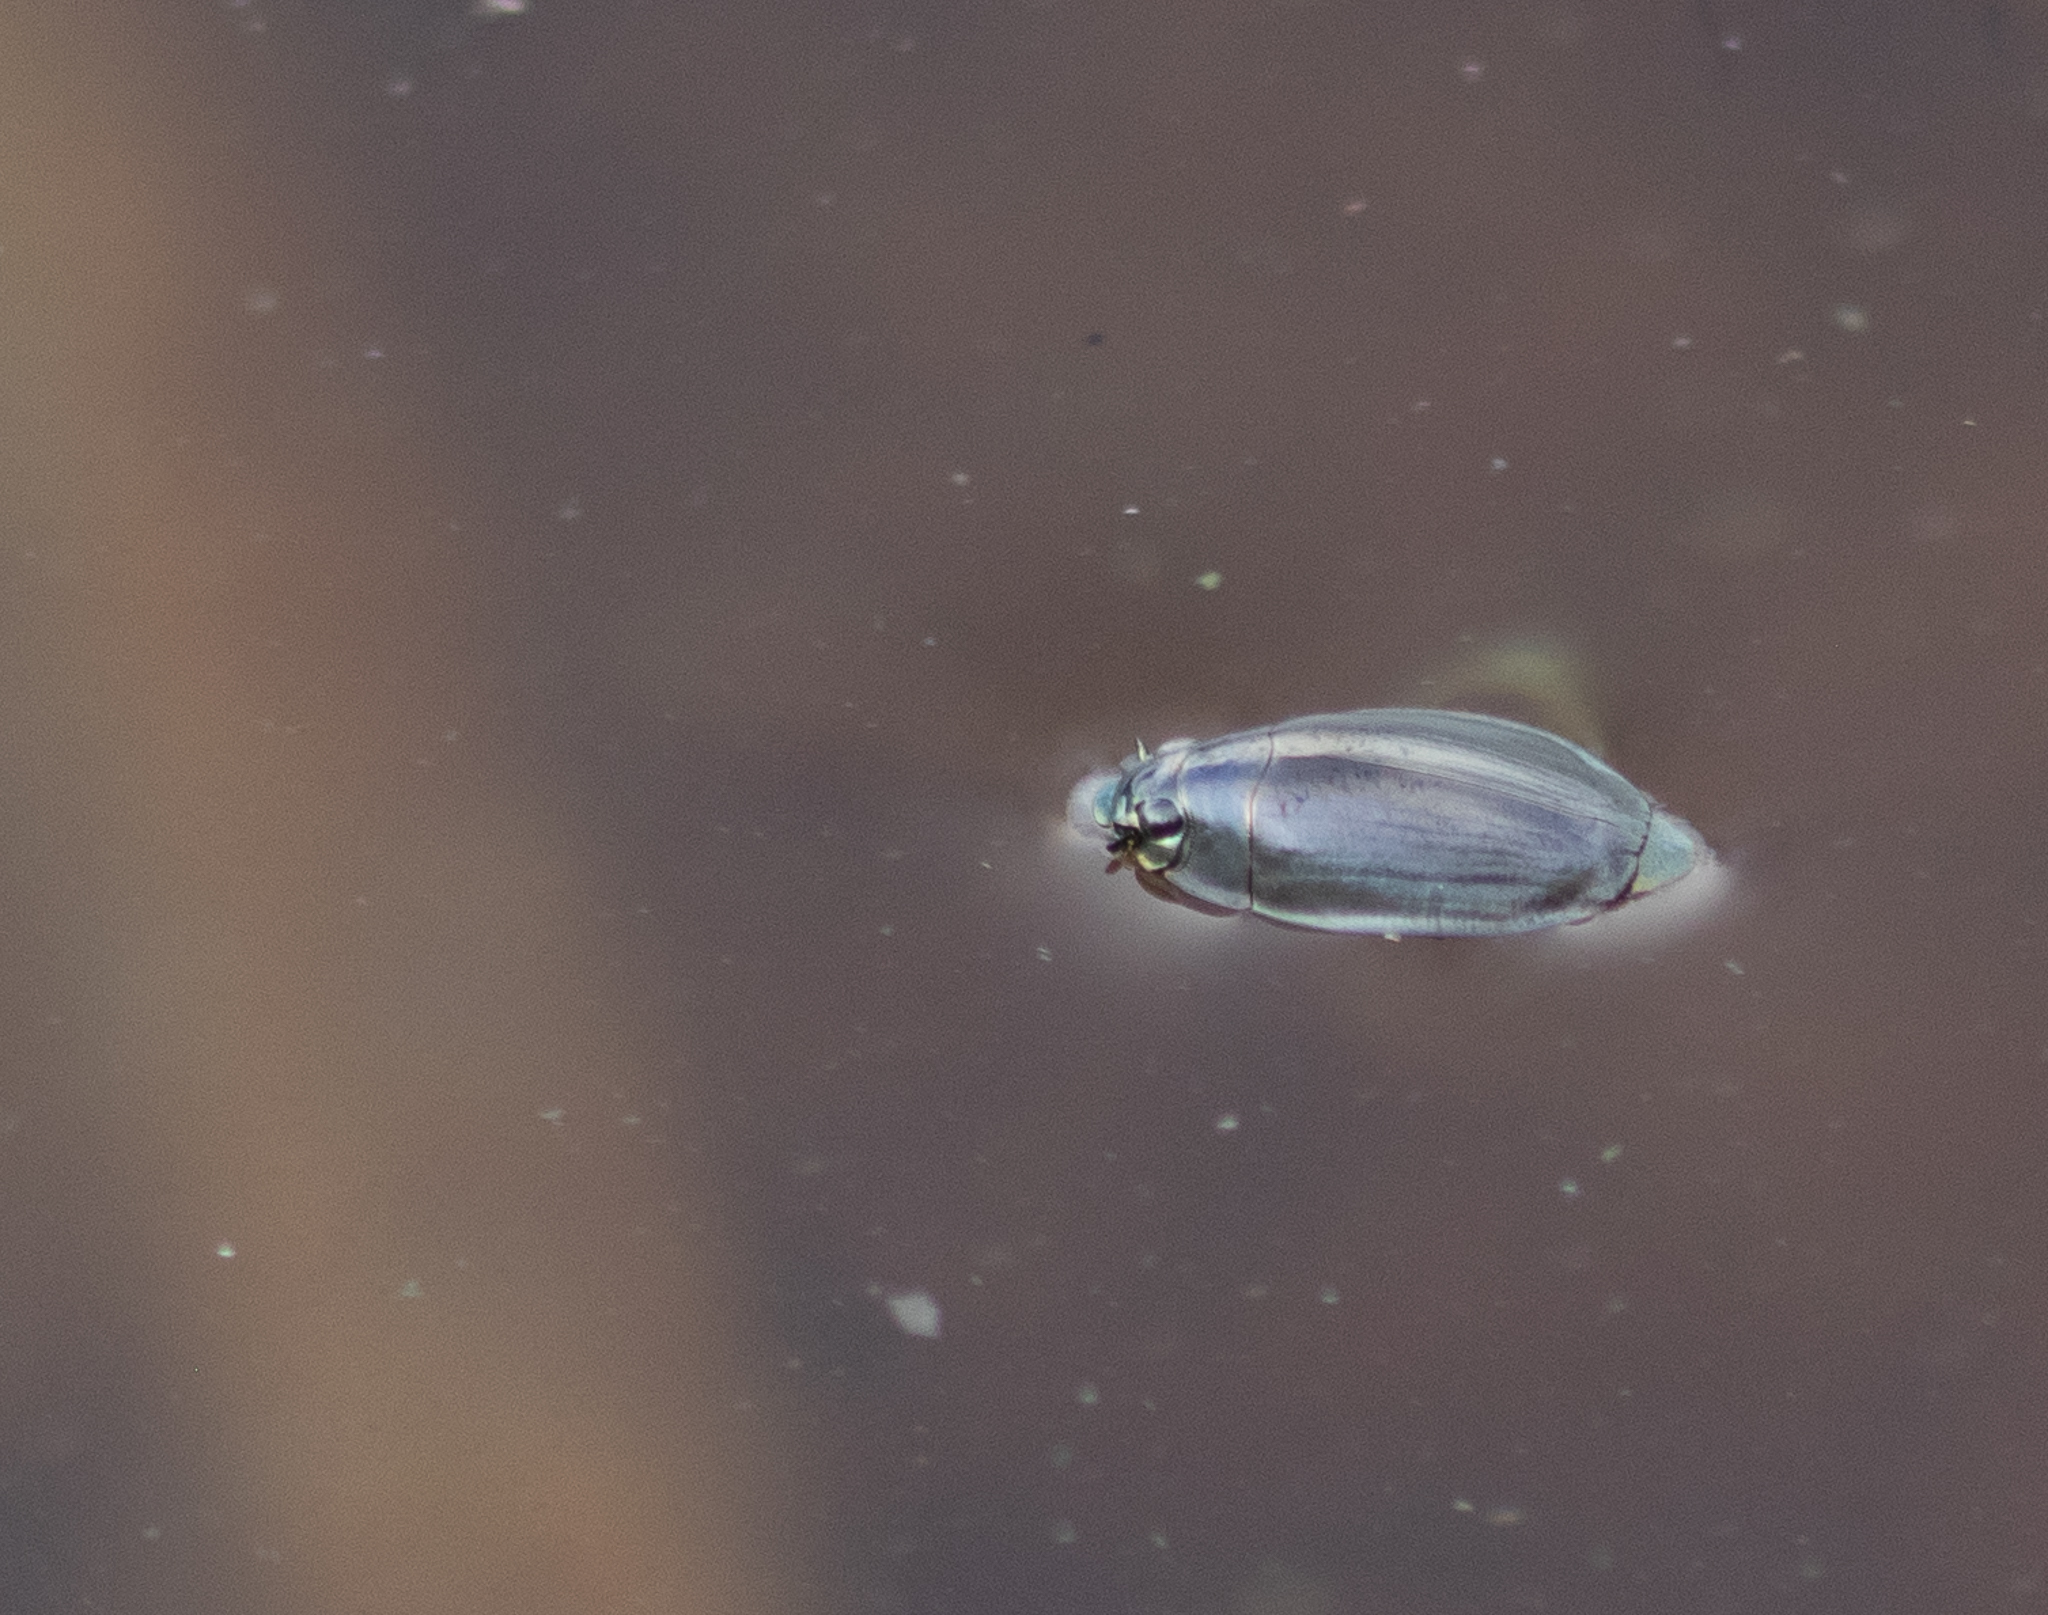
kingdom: Animalia
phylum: Arthropoda
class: Insecta
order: Coleoptera
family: Gyrinidae
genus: Dineutus
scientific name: Dineutus
